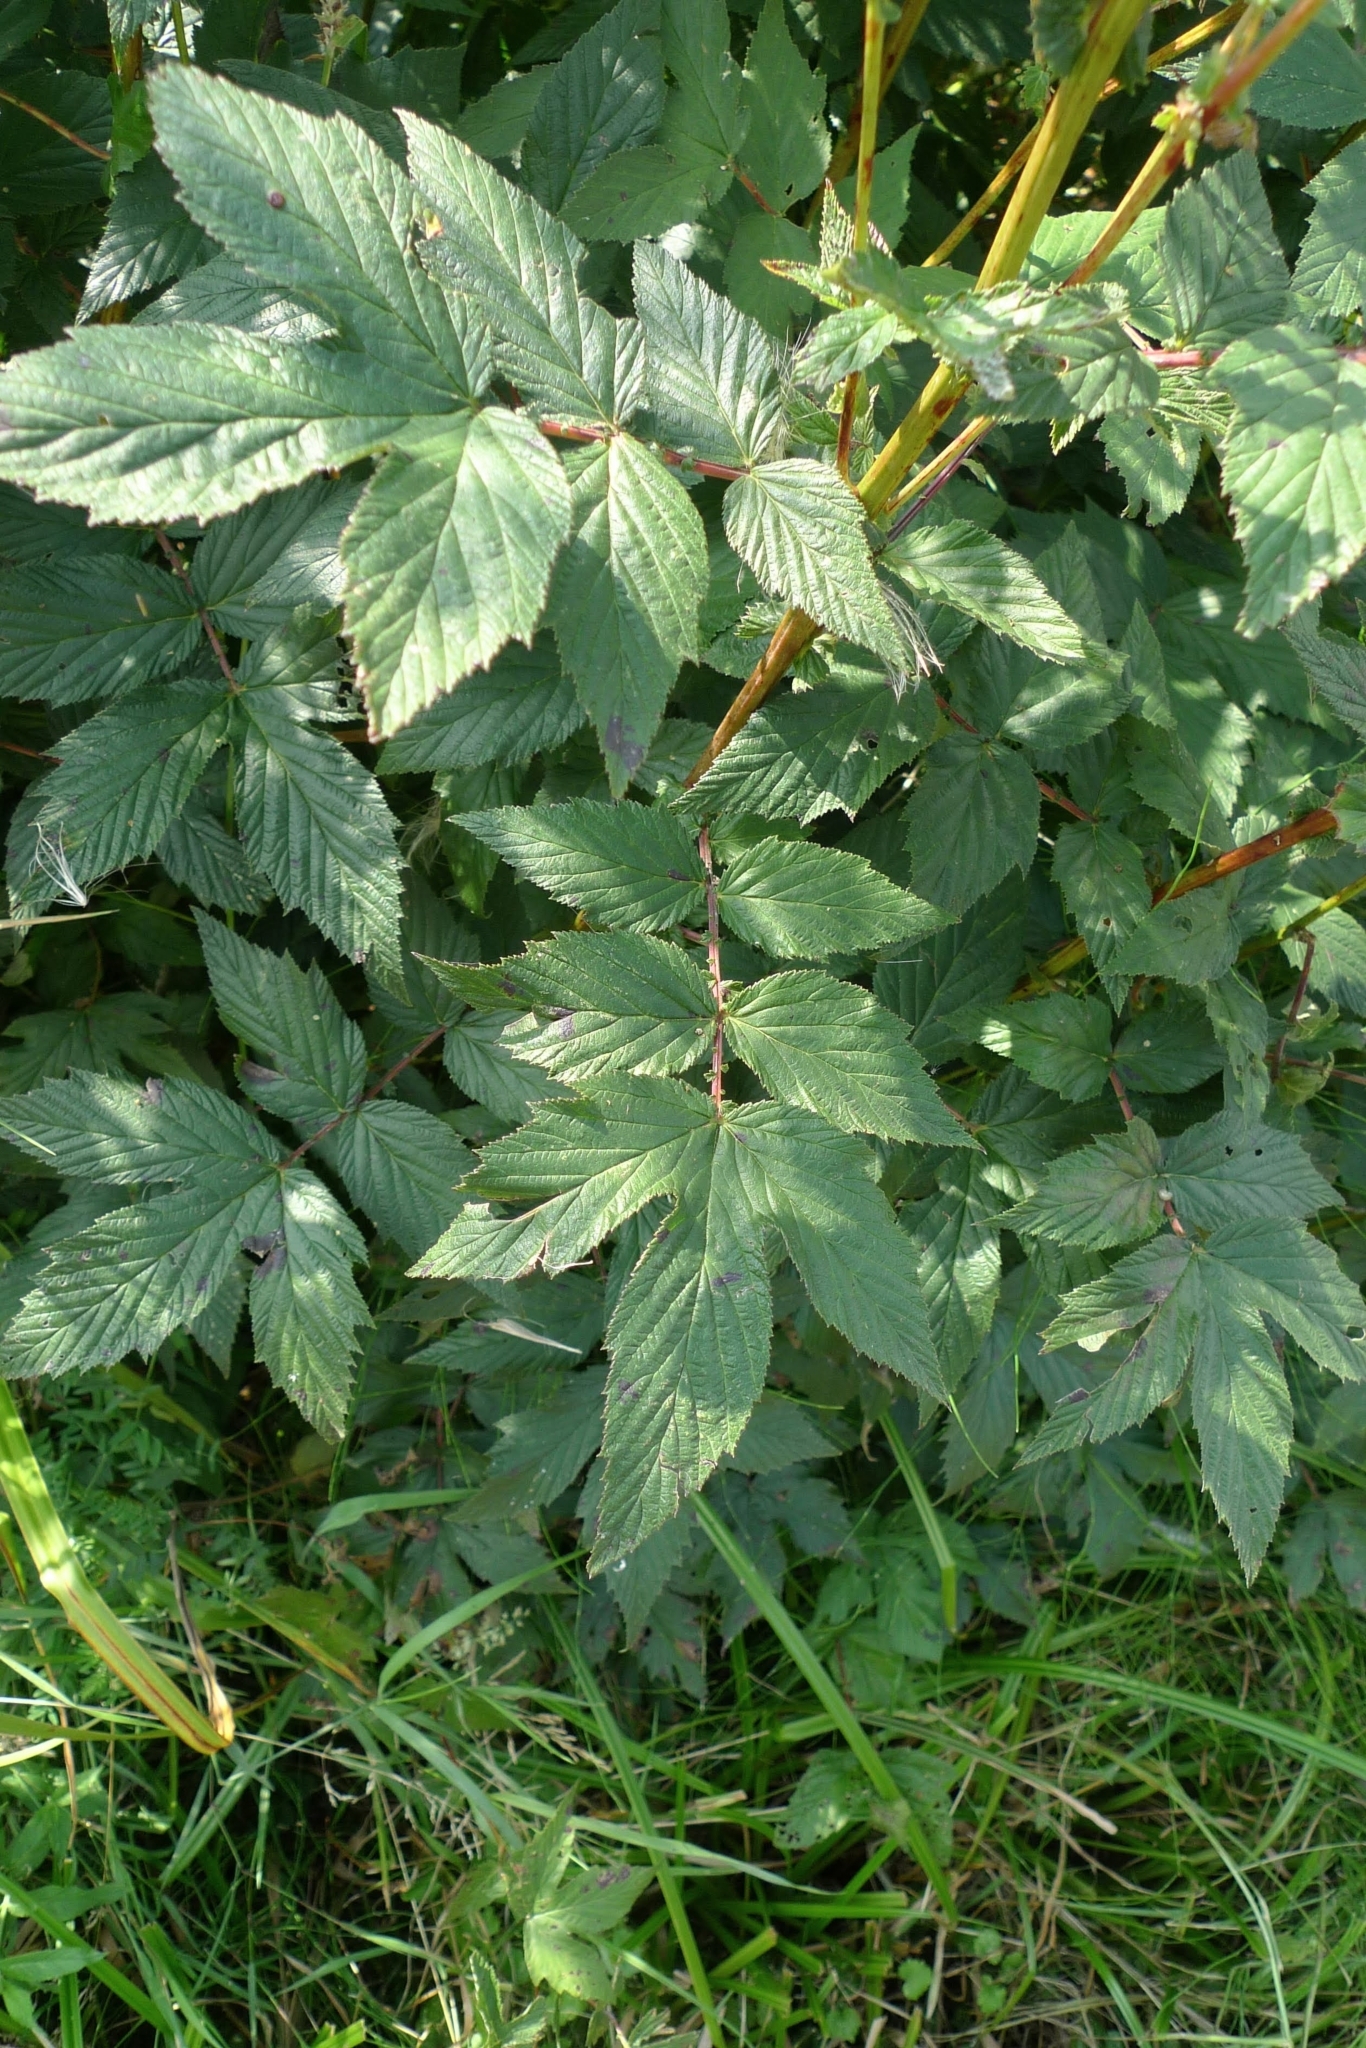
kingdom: Plantae
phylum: Tracheophyta
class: Magnoliopsida
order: Rosales
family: Rosaceae
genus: Filipendula
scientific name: Filipendula ulmaria
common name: Meadowsweet
